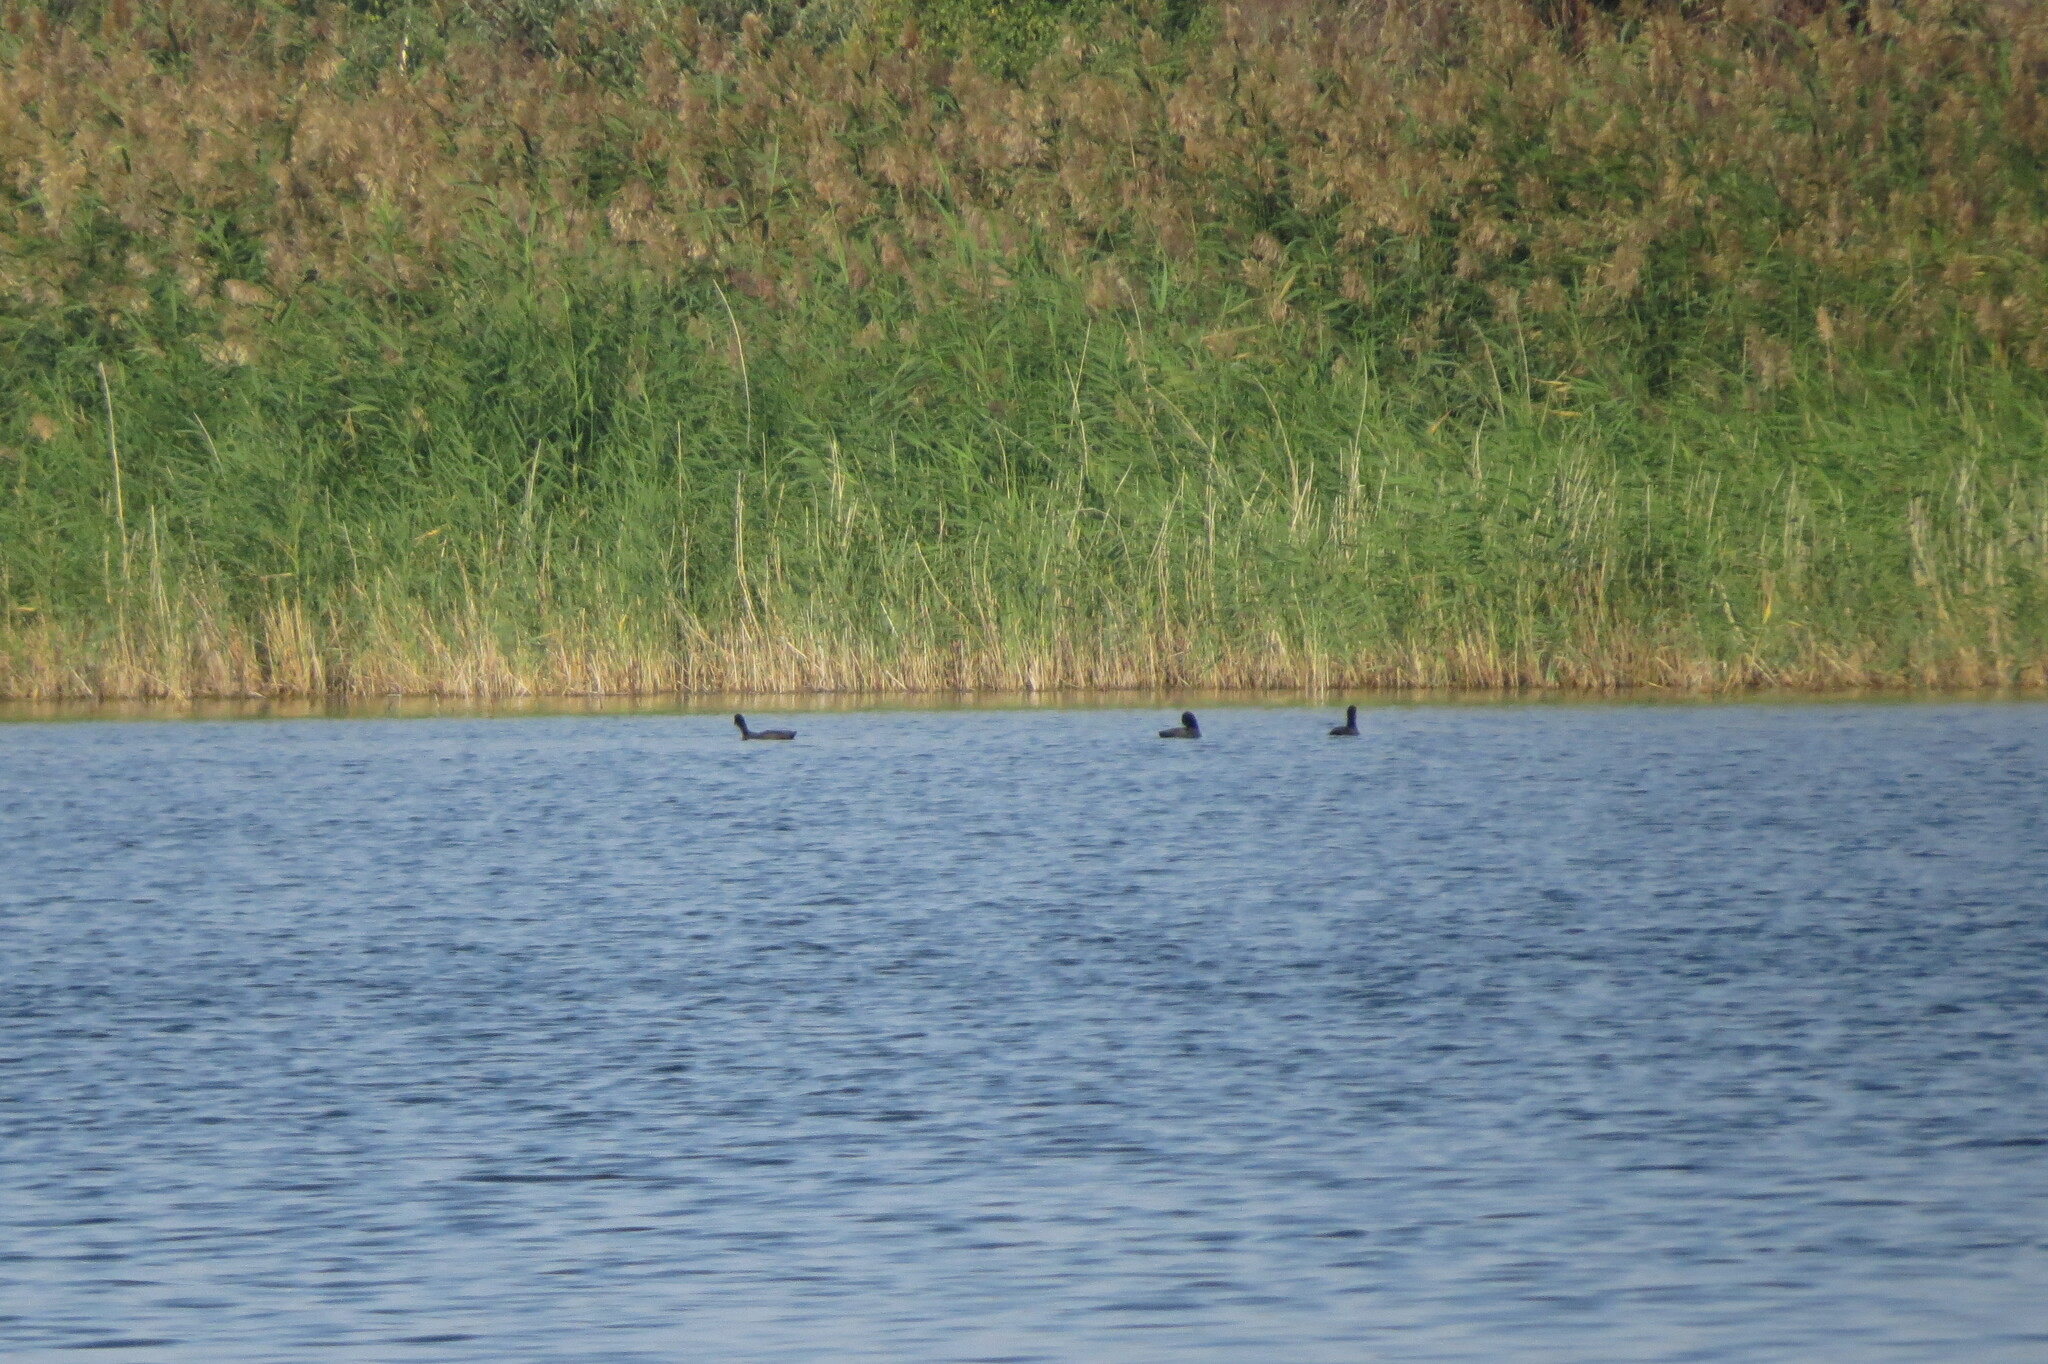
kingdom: Animalia
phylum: Chordata
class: Aves
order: Gruiformes
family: Rallidae
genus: Fulica
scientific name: Fulica atra
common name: Eurasian coot
